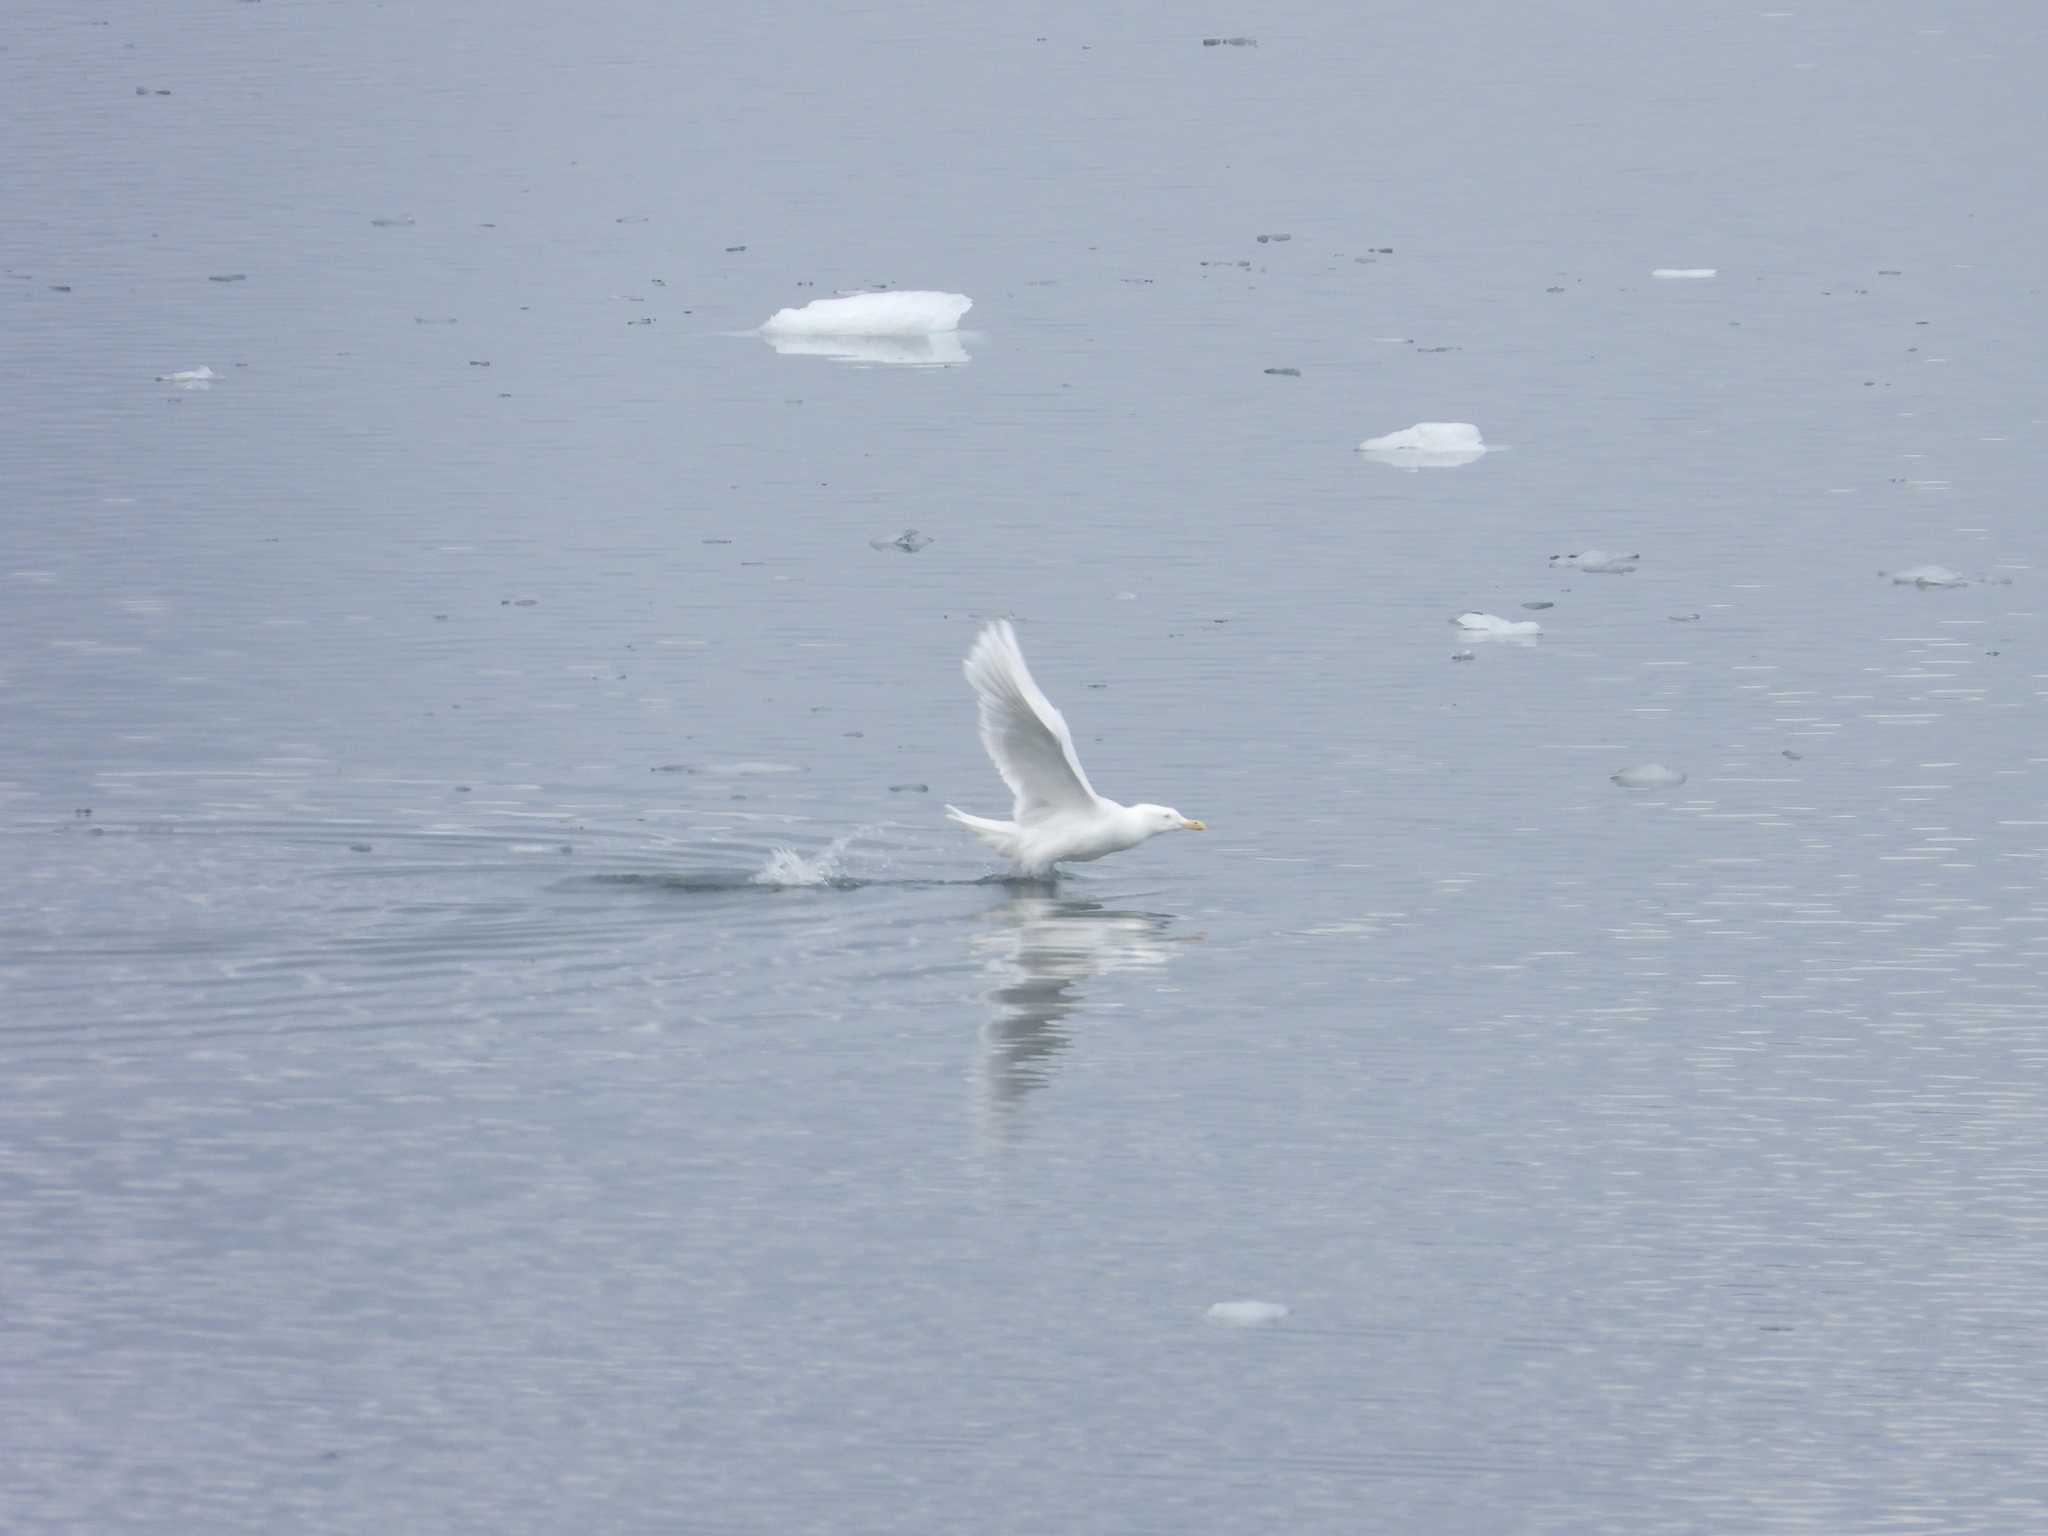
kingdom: Animalia
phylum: Chordata
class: Aves
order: Charadriiformes
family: Laridae
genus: Larus
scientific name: Larus hyperboreus
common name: Glaucous gull
